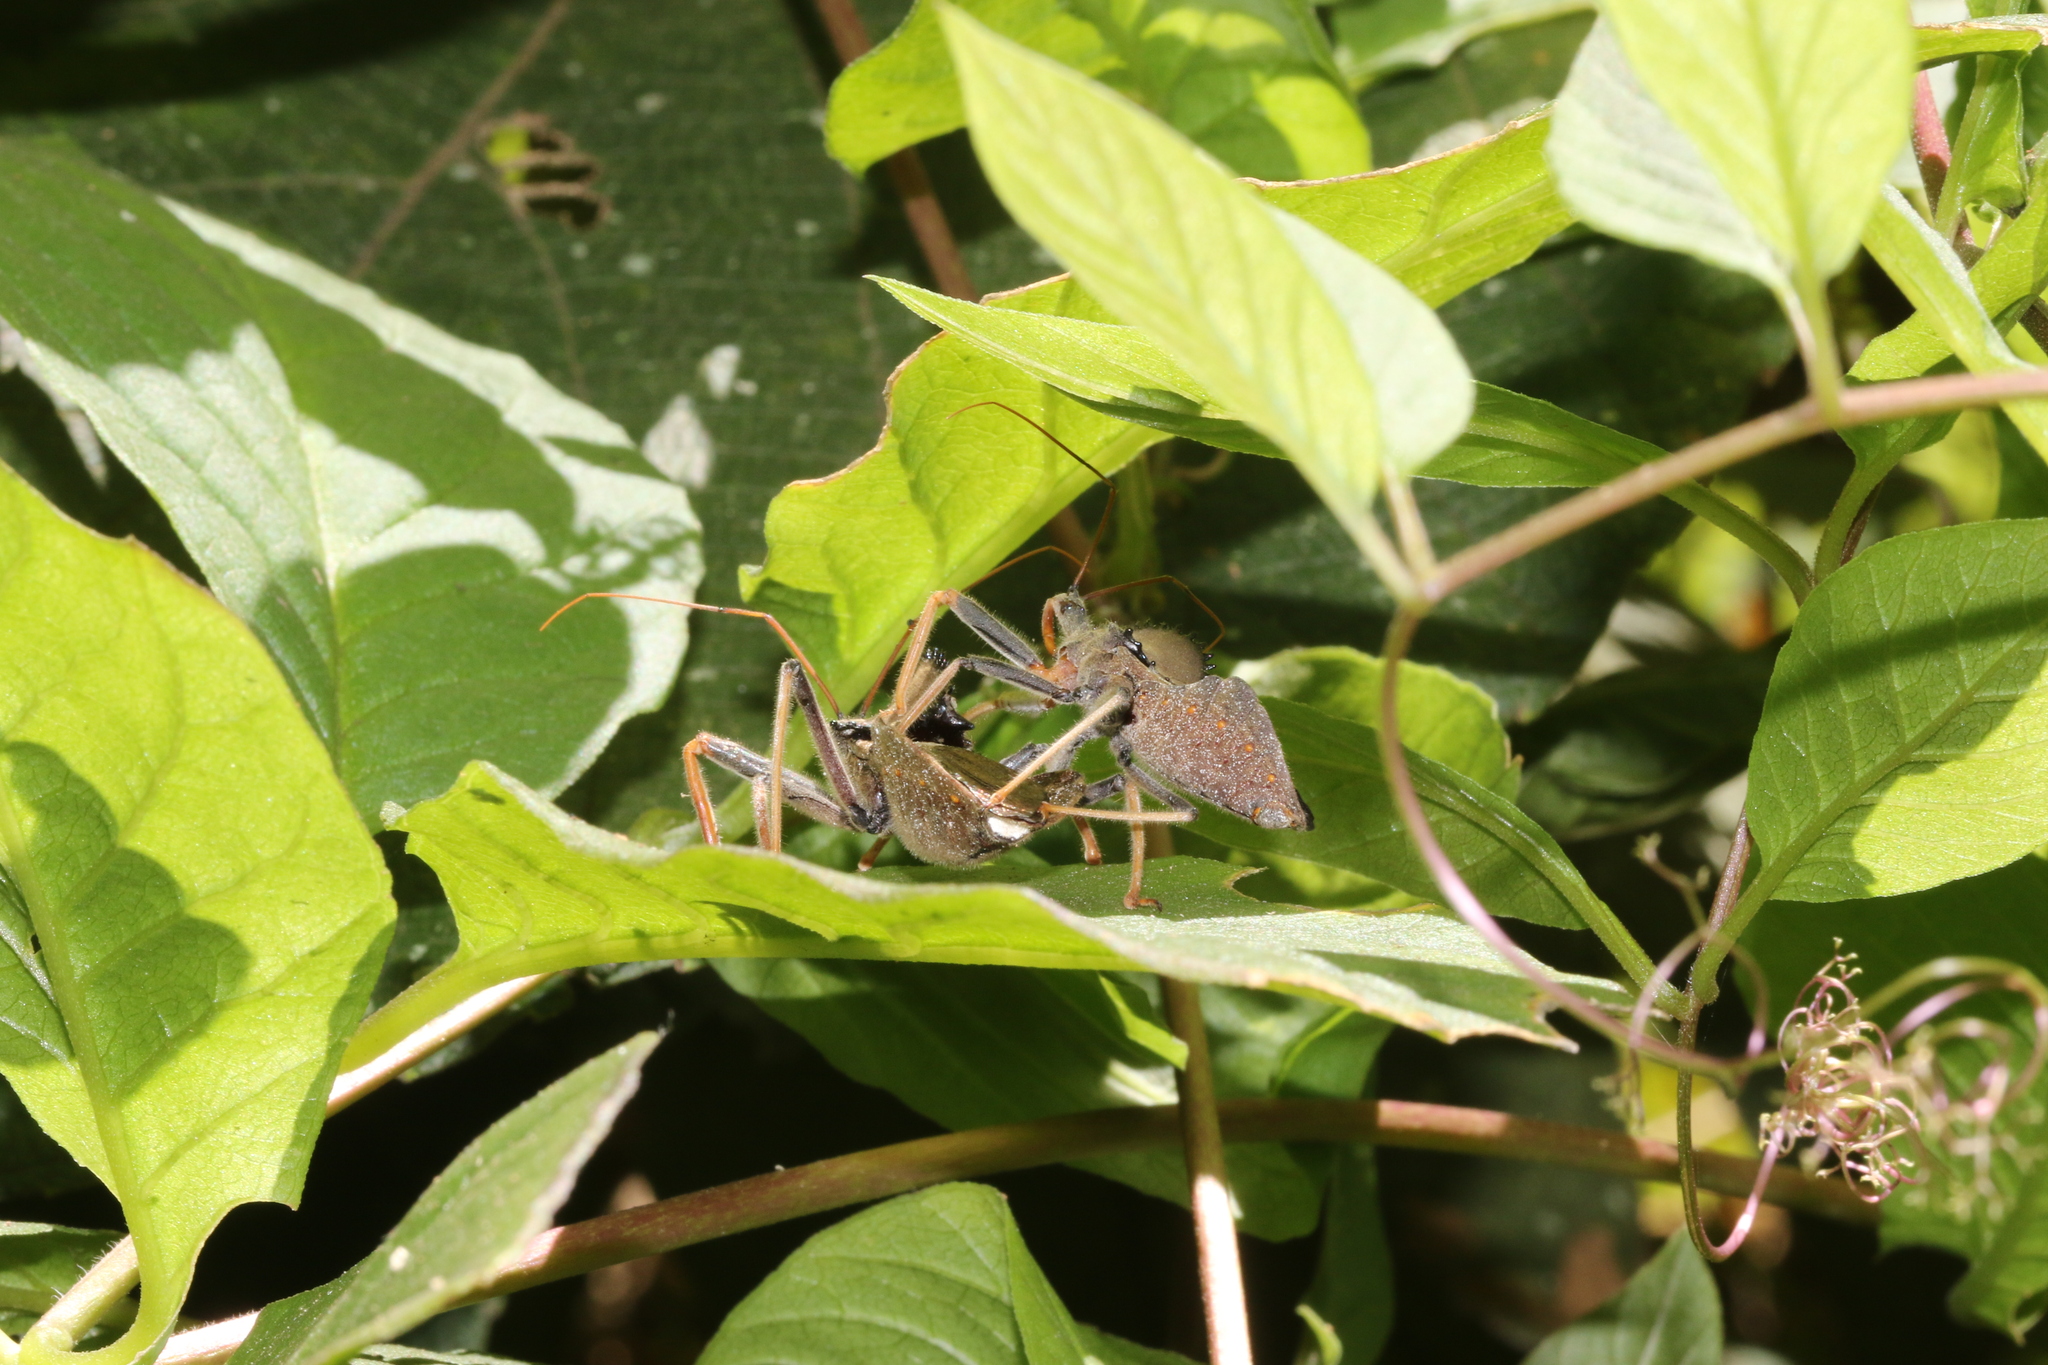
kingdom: Animalia
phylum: Arthropoda
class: Insecta
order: Hemiptera
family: Reduviidae
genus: Arilus
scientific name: Arilus carinatus
